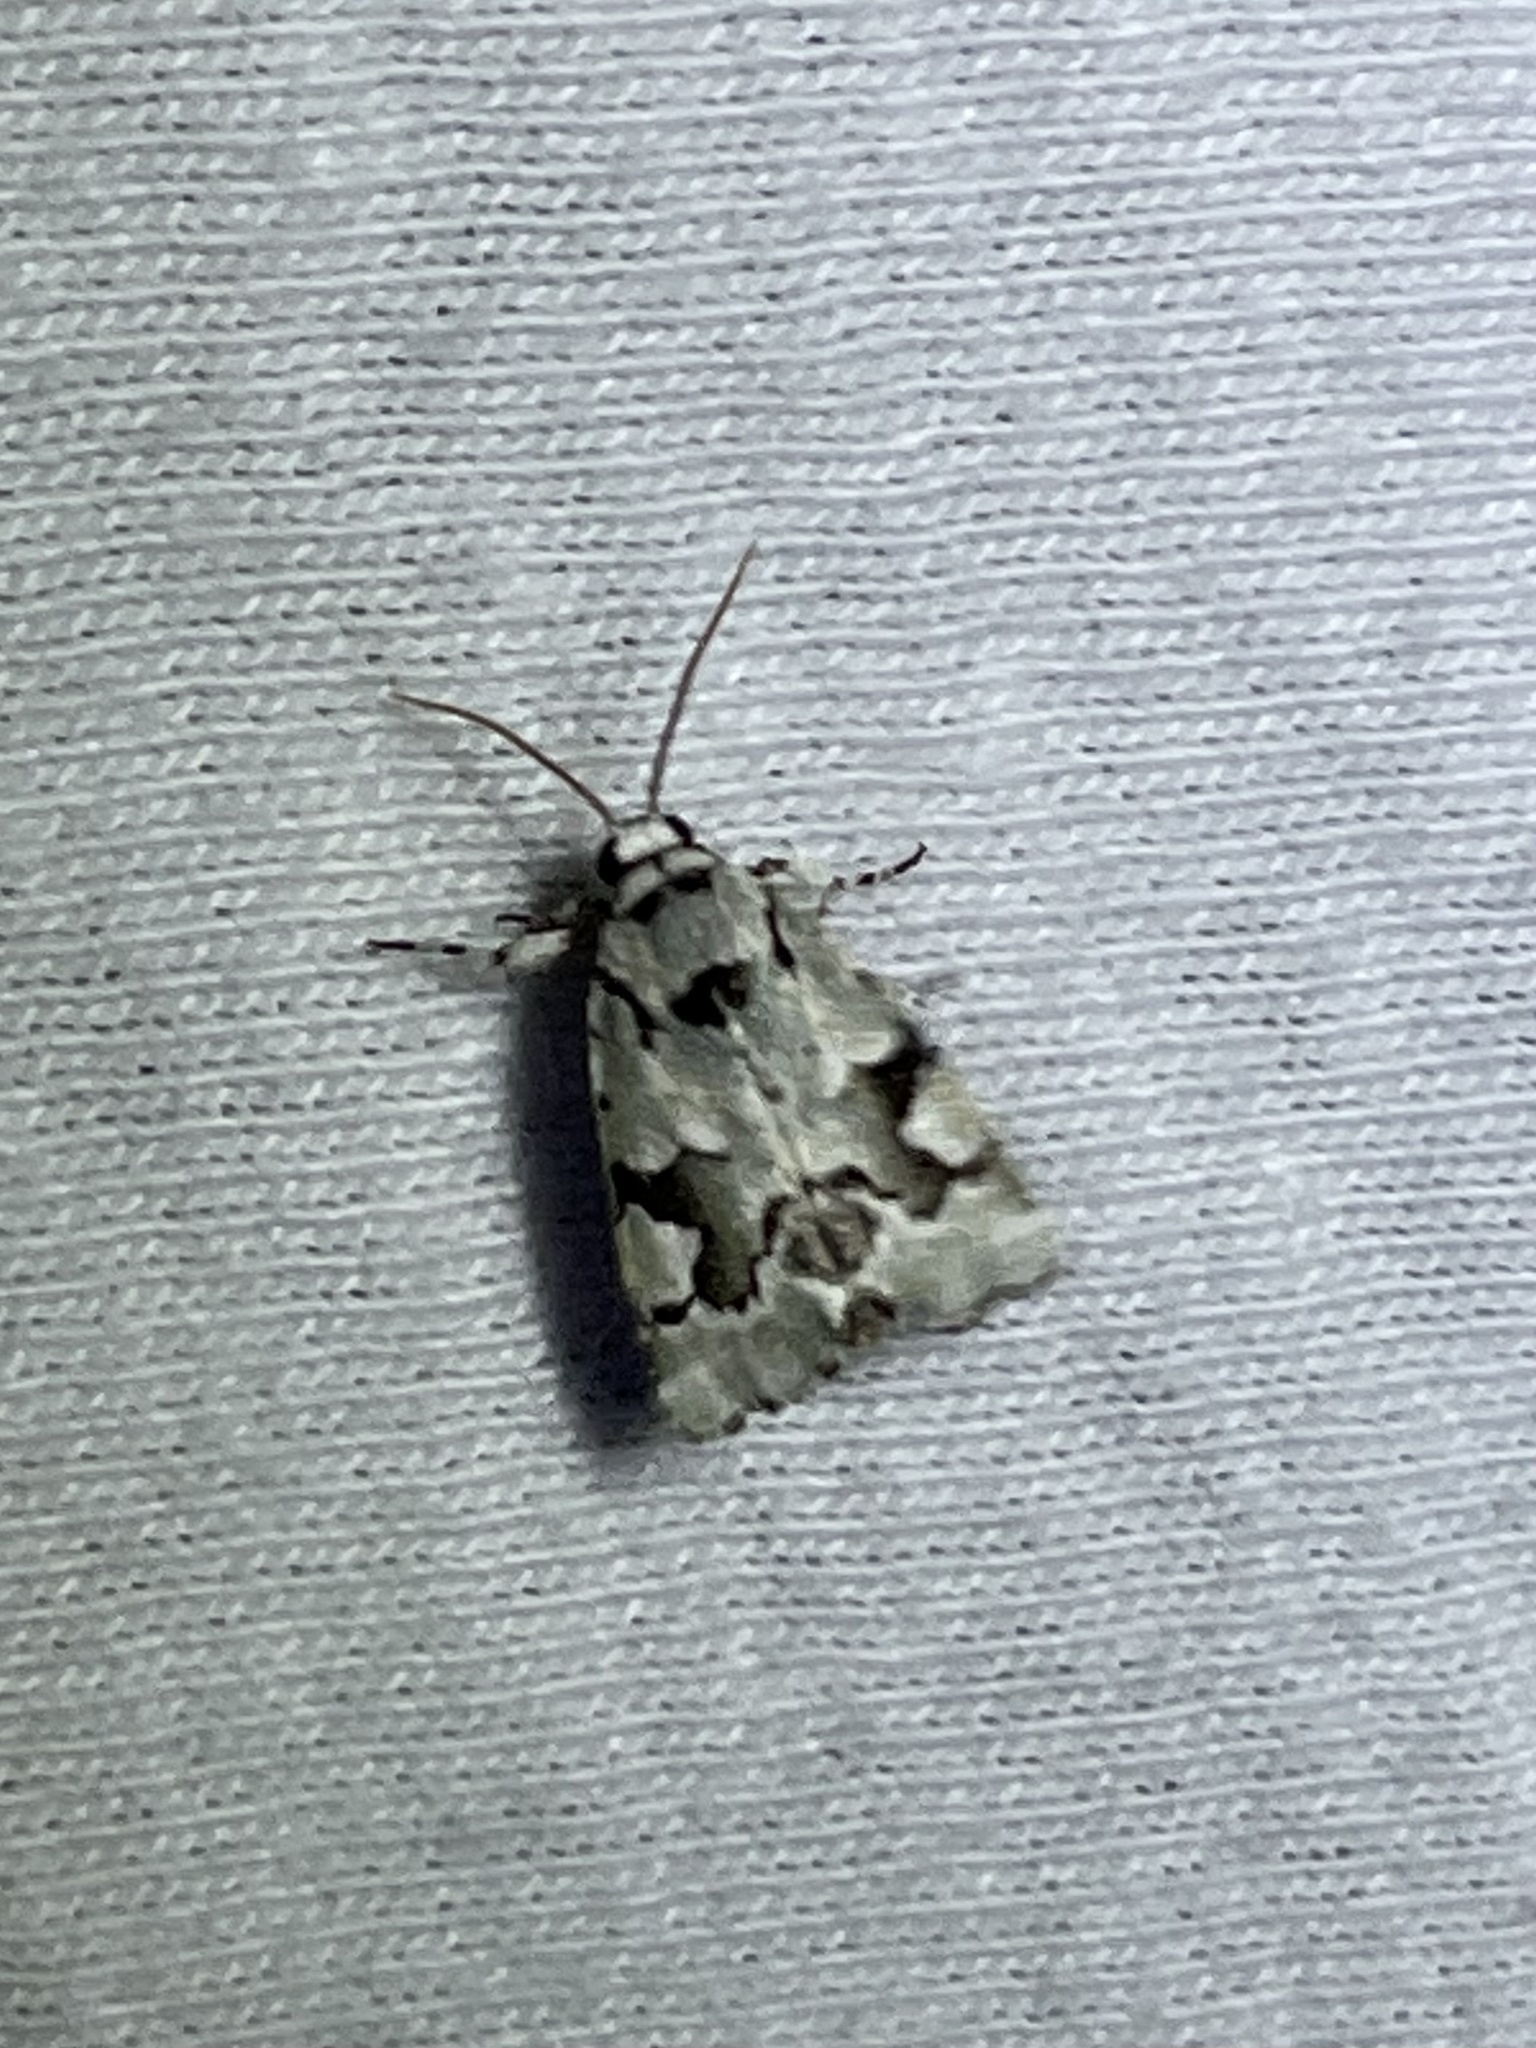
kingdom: Animalia
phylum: Arthropoda
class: Insecta
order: Lepidoptera
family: Noctuidae
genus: Emarginea
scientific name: Emarginea percara
